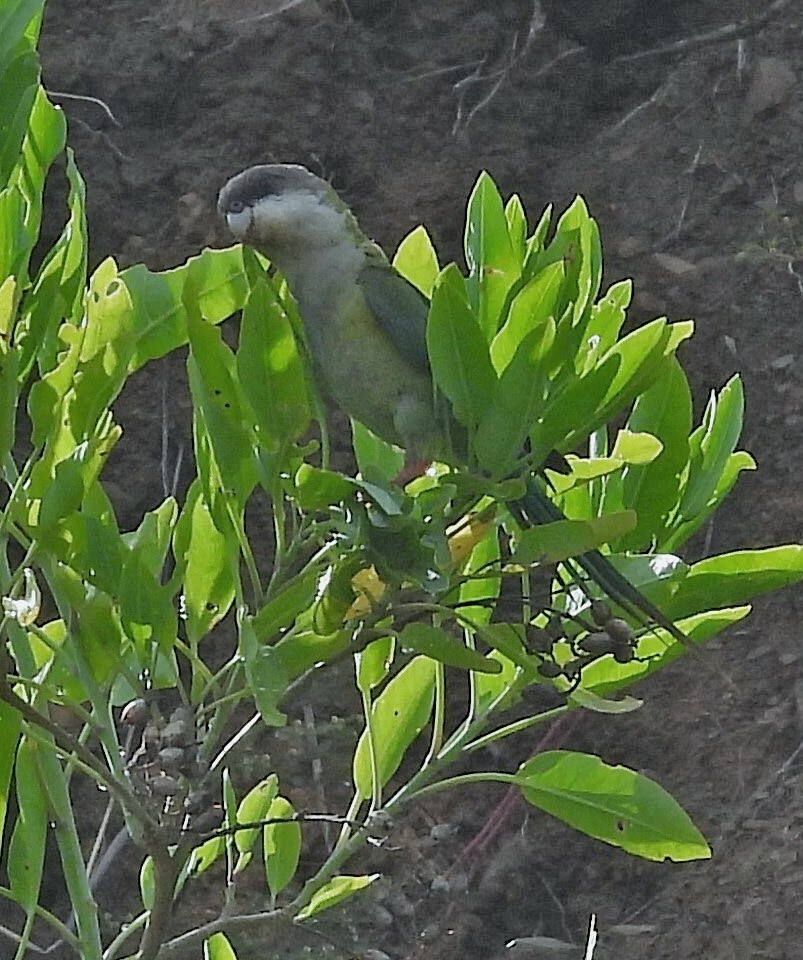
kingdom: Animalia
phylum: Chordata
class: Aves
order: Psittaciformes
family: Psittacidae
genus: Psilopsiagon
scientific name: Psilopsiagon aymara
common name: Grey-hooded parakeet
